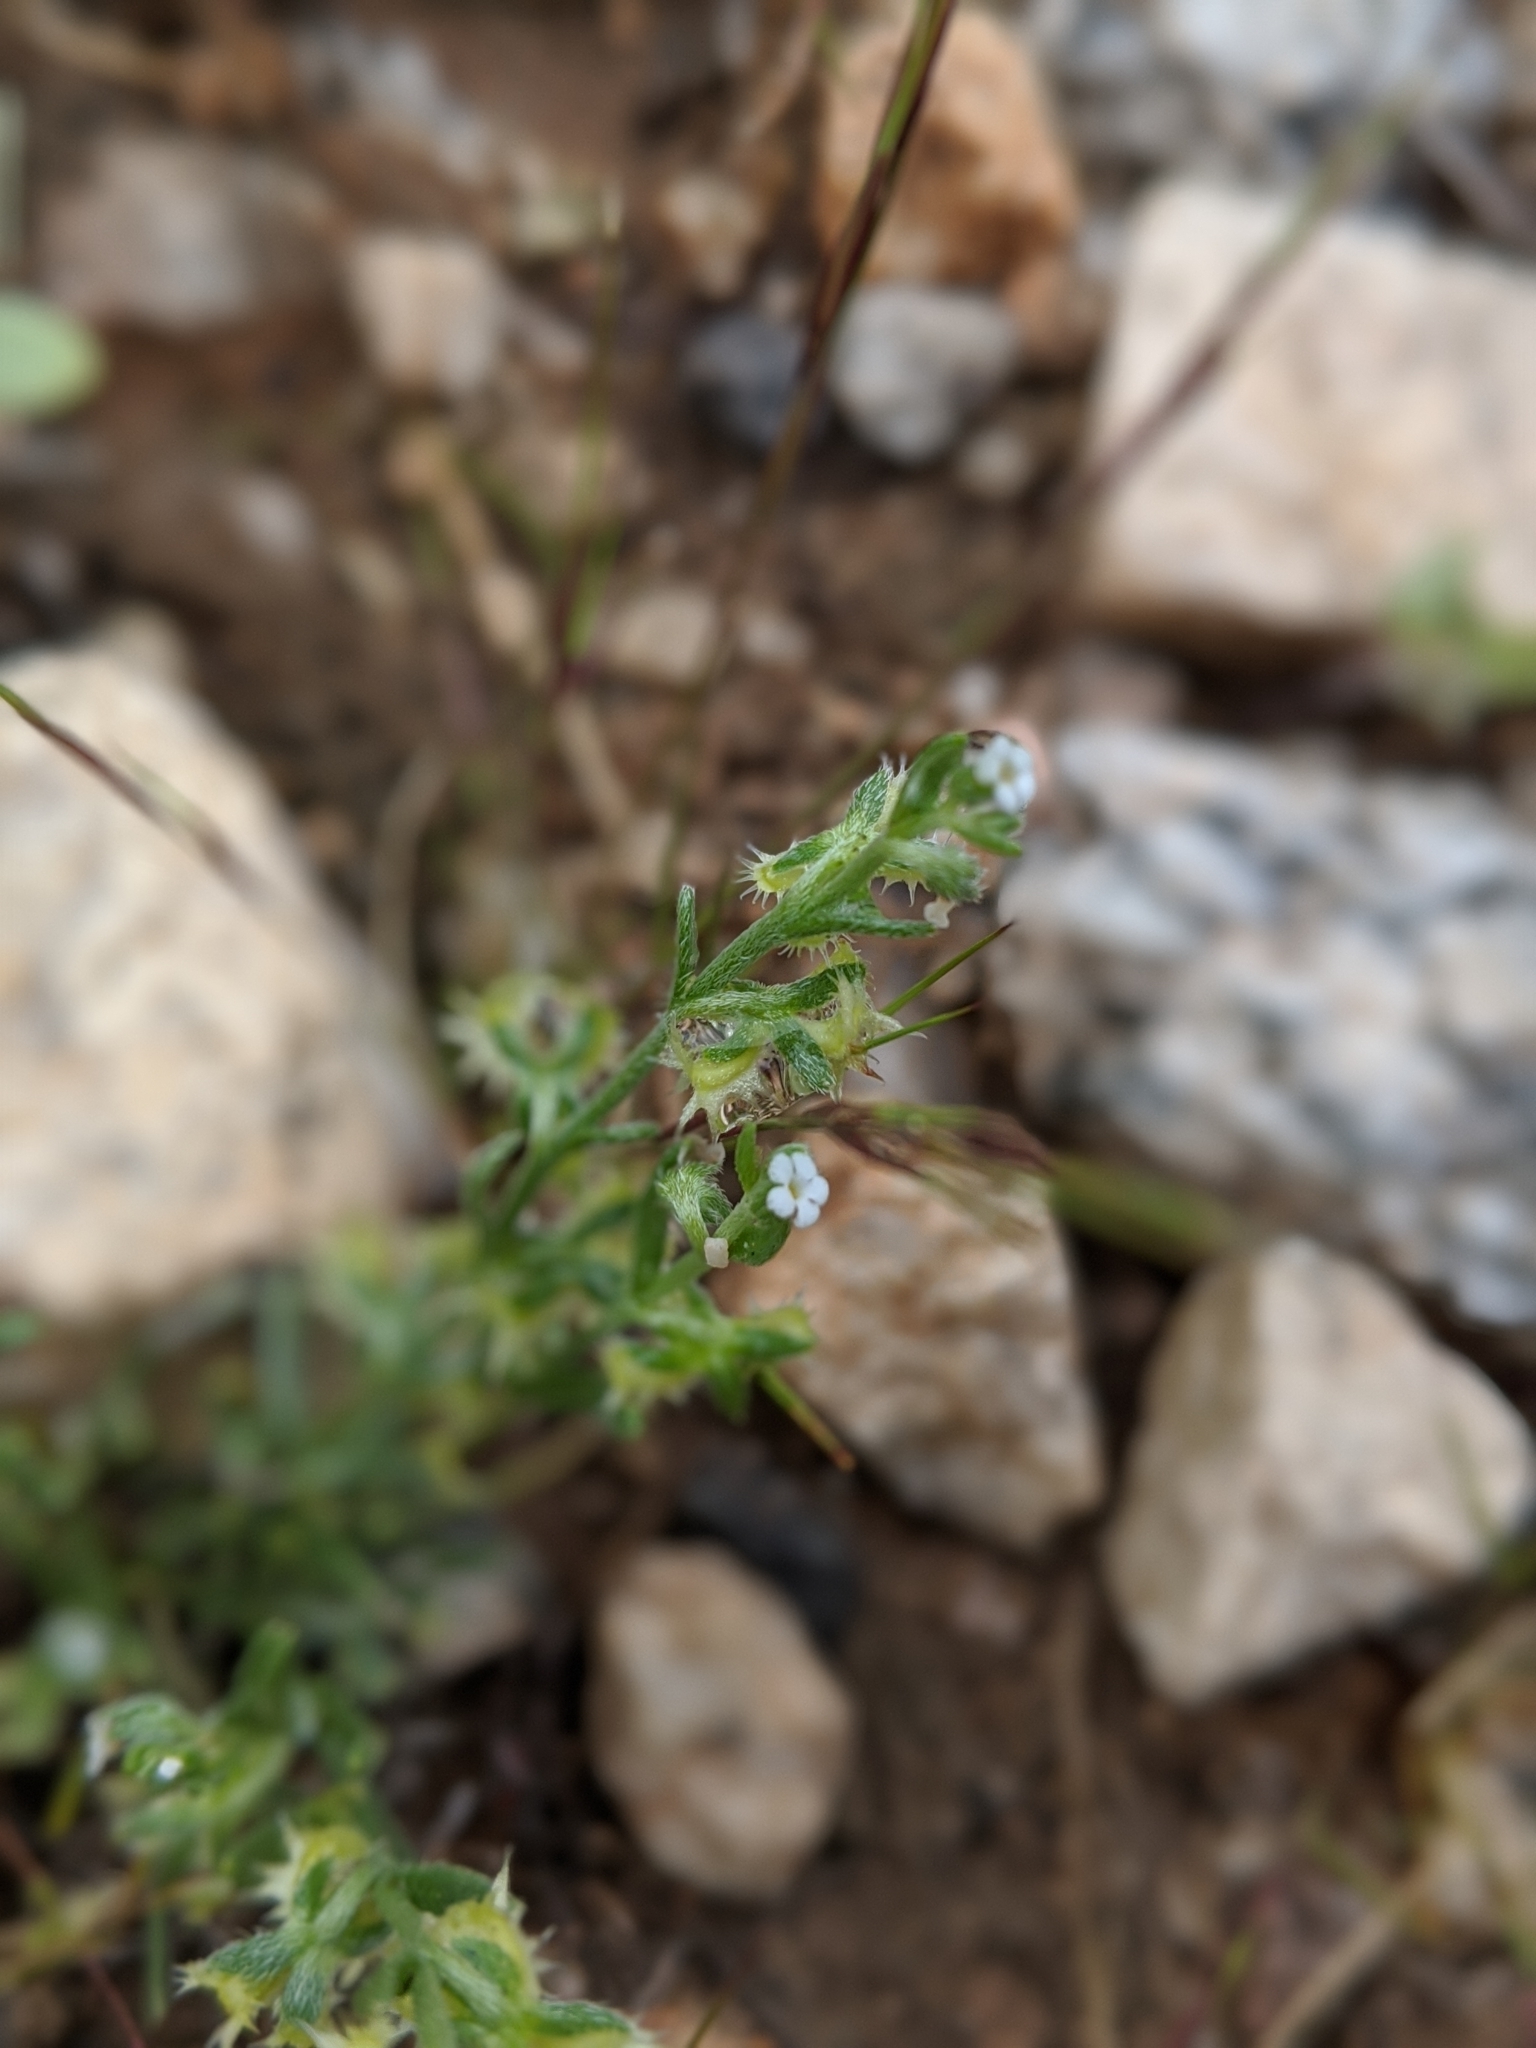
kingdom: Plantae
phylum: Tracheophyta
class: Magnoliopsida
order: Boraginales
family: Boraginaceae
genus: Pectocarya
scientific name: Pectocarya recurvata
